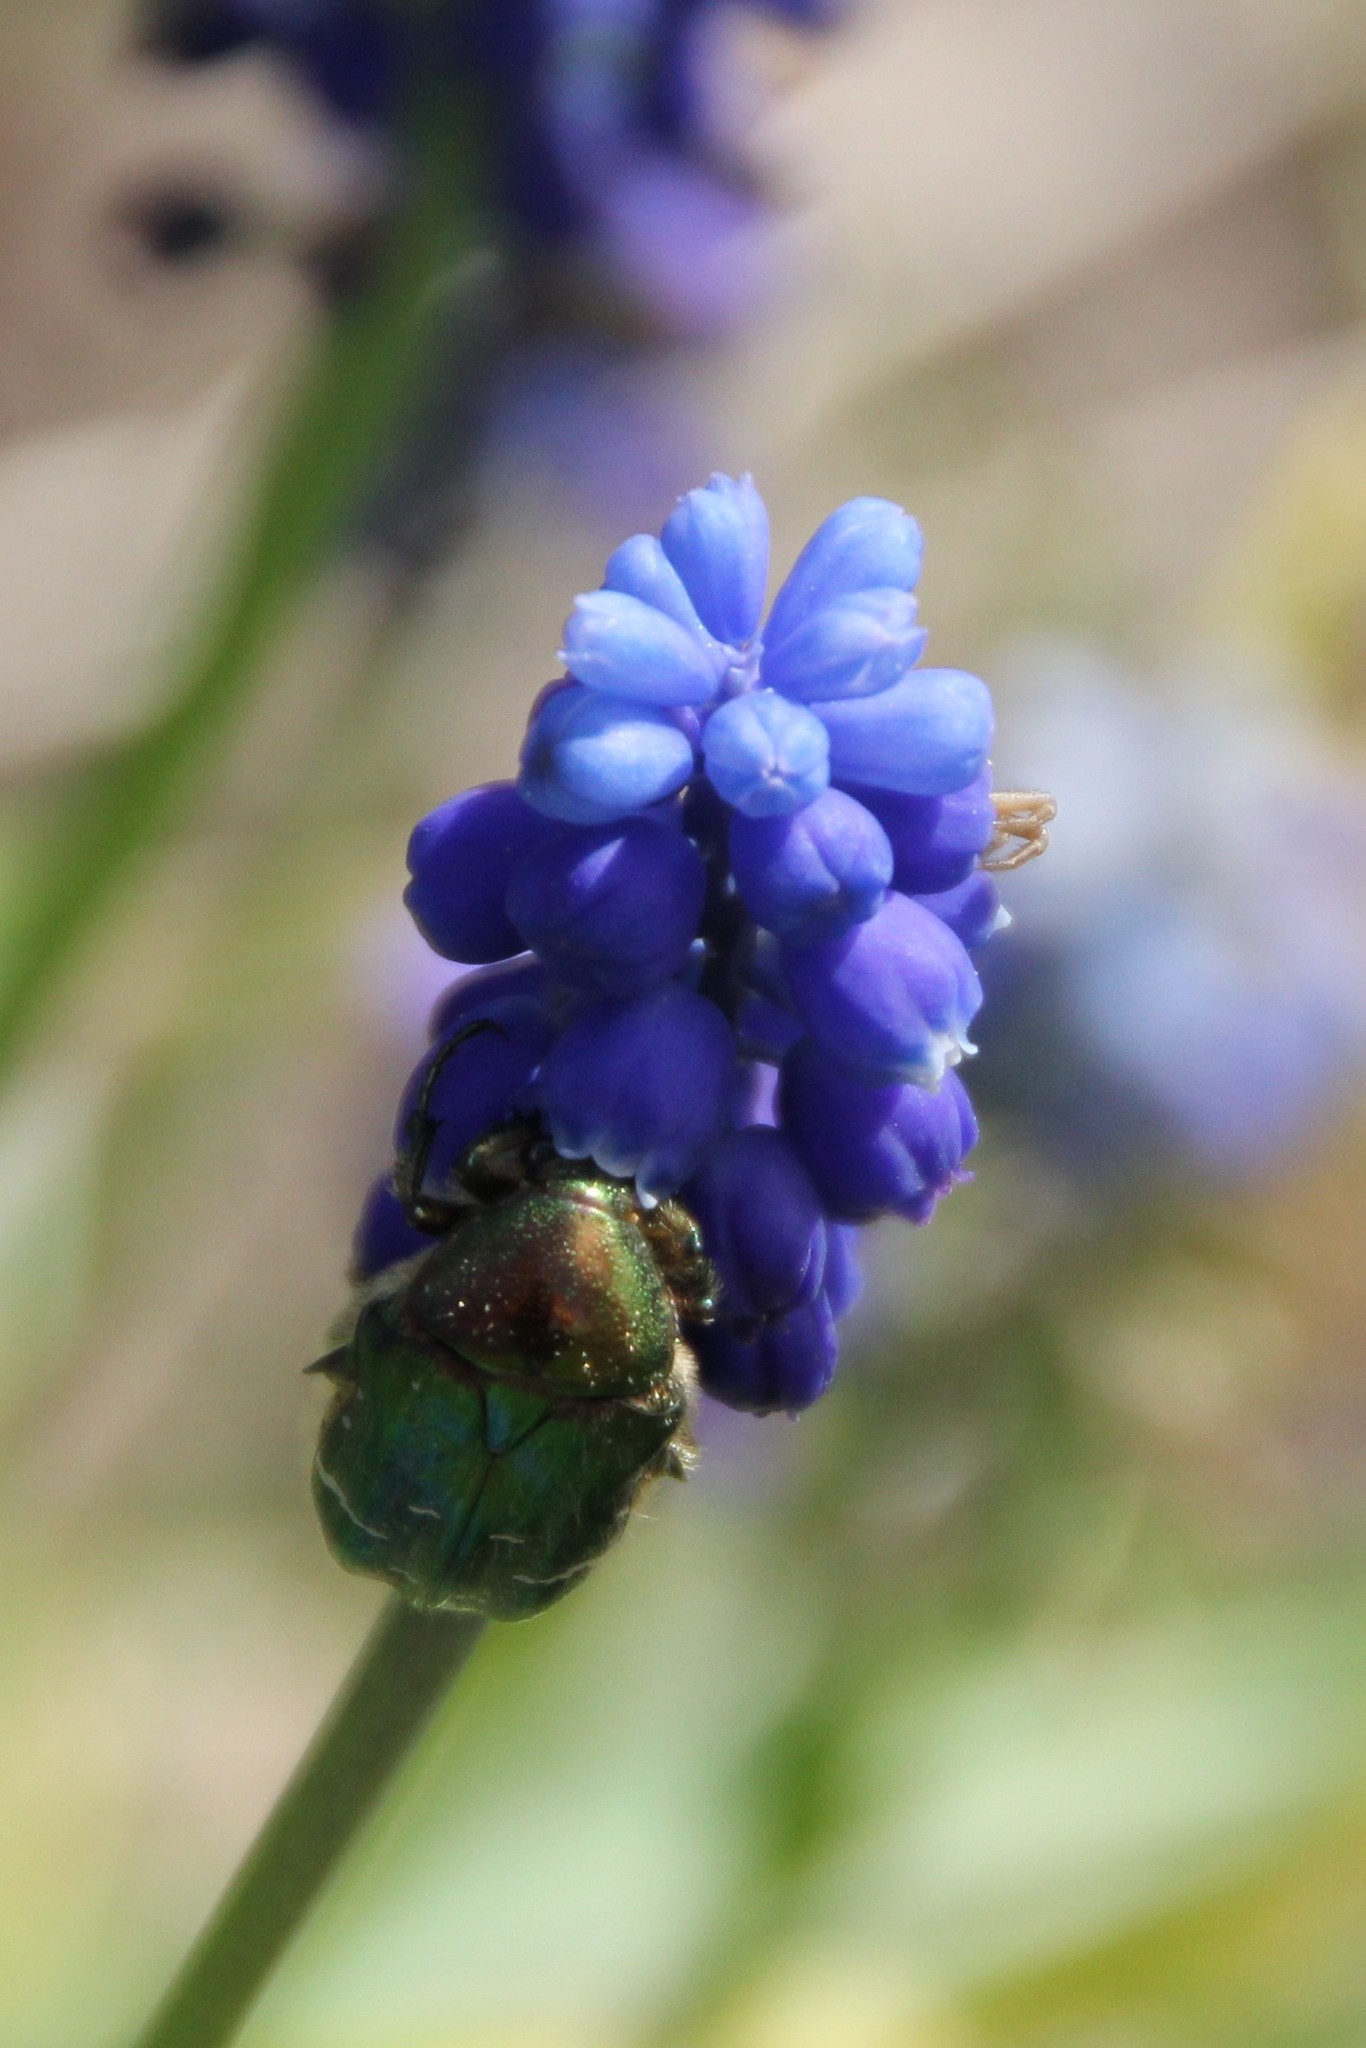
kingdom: Animalia
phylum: Arthropoda
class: Insecta
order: Coleoptera
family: Scarabaeidae
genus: Cetonia
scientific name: Cetonia aurata
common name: Rose chafer
